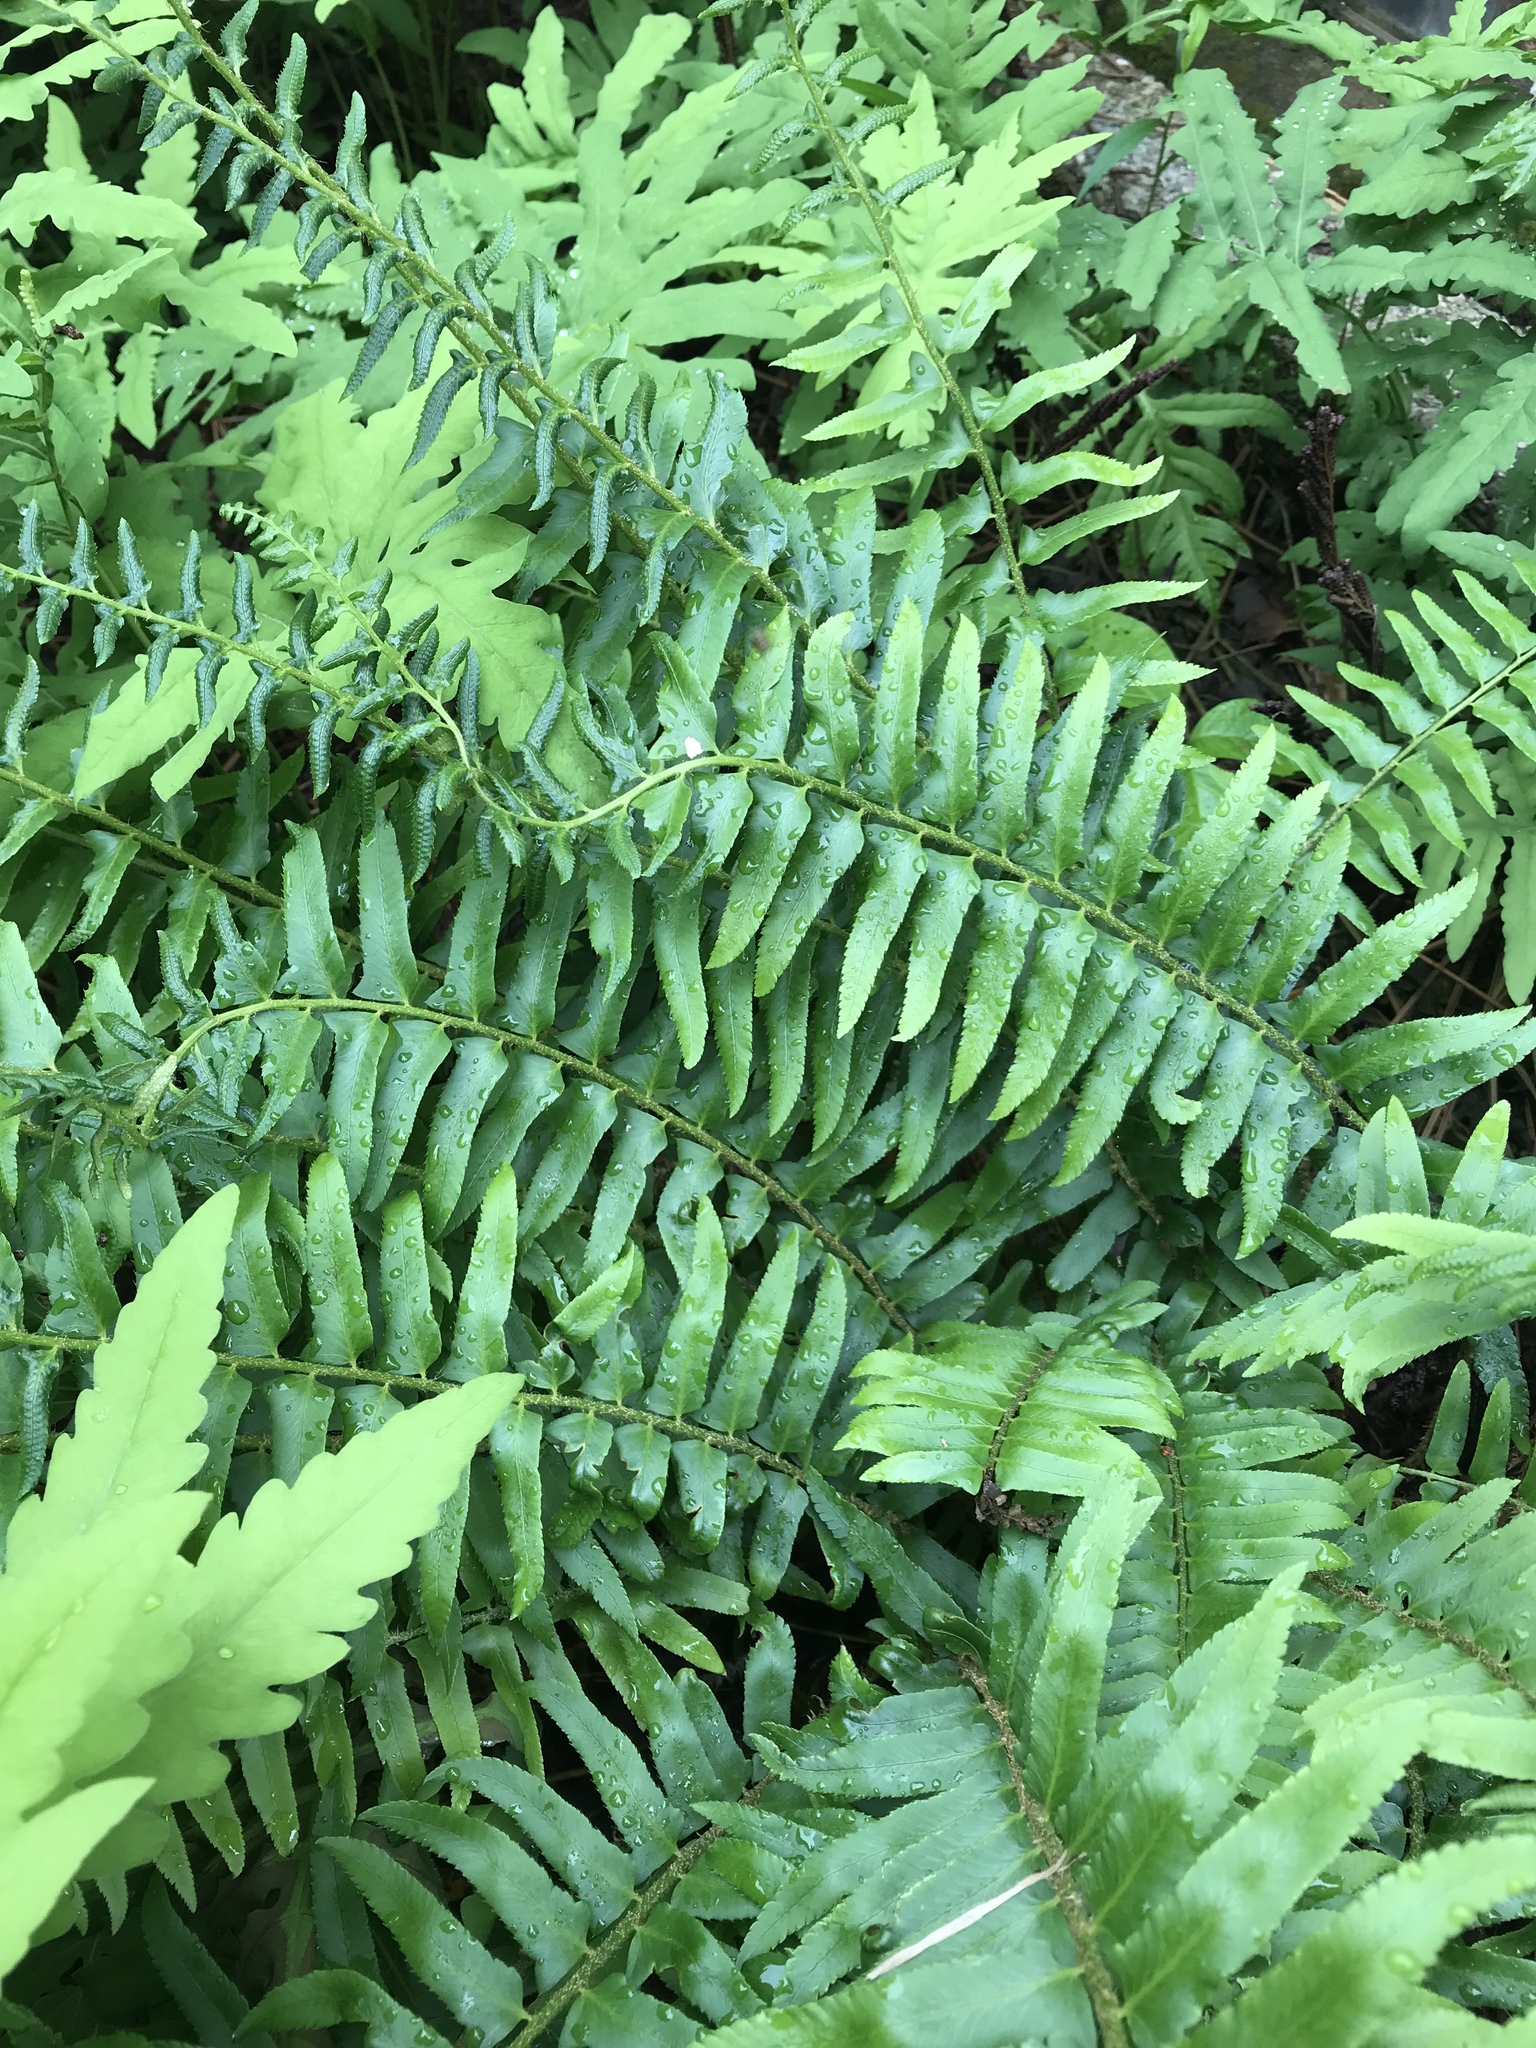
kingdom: Plantae
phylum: Tracheophyta
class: Polypodiopsida
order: Polypodiales
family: Dryopteridaceae
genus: Polystichum
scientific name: Polystichum acrostichoides
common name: Christmas fern
